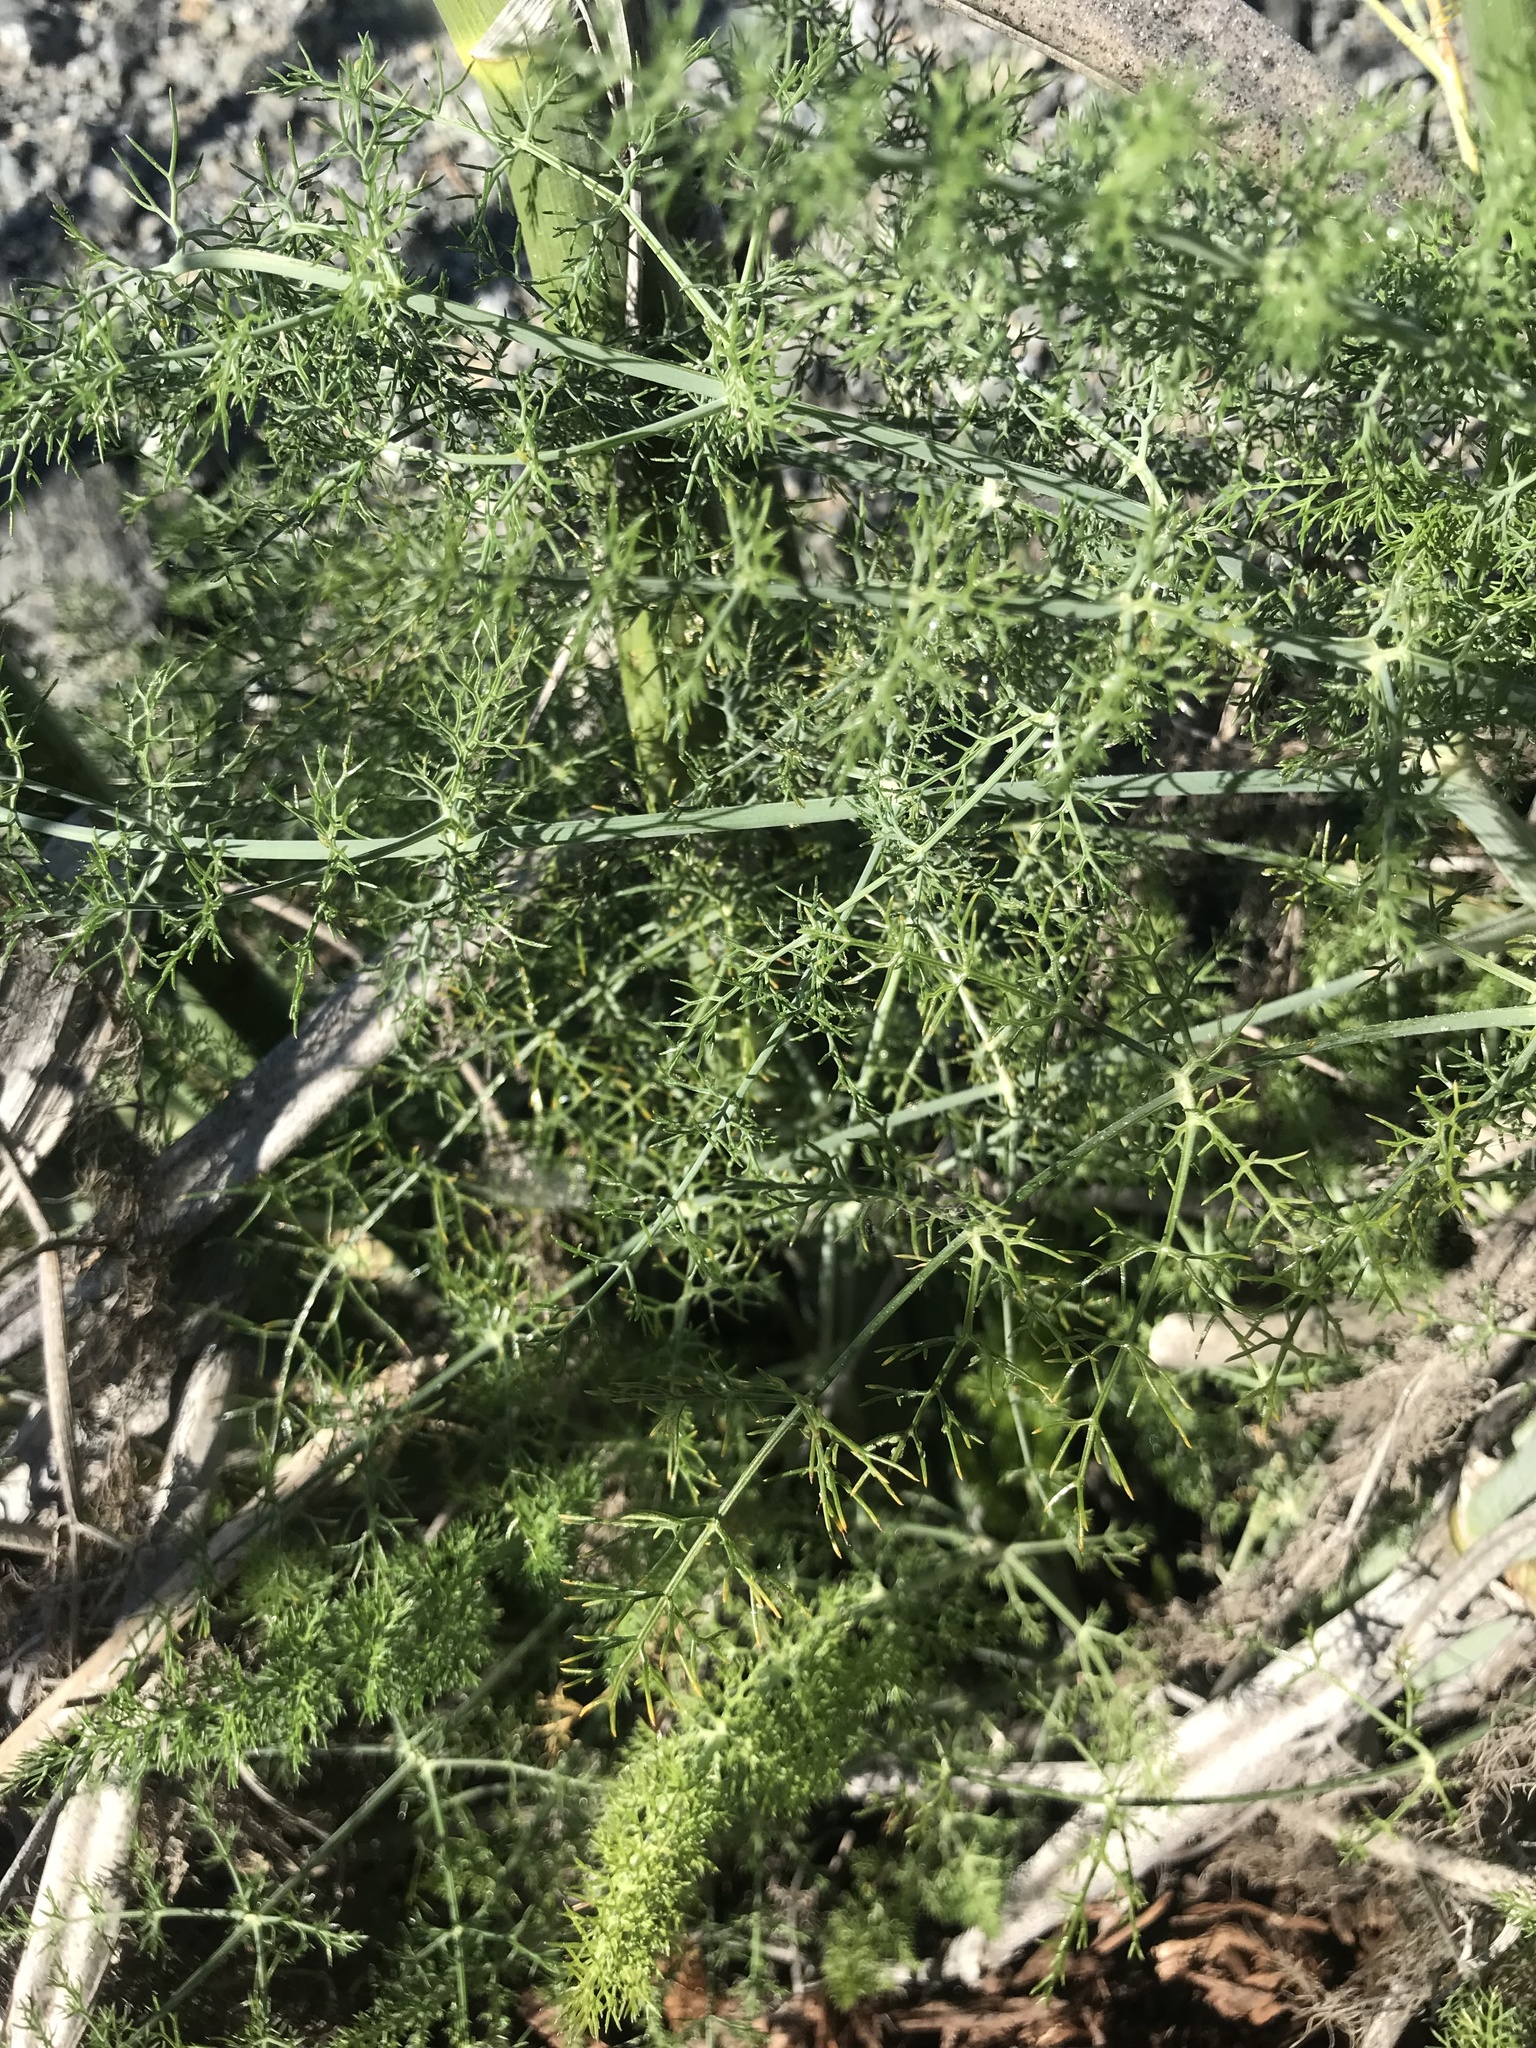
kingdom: Plantae
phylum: Tracheophyta
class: Magnoliopsida
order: Apiales
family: Apiaceae
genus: Foeniculum
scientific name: Foeniculum vulgare
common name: Fennel
